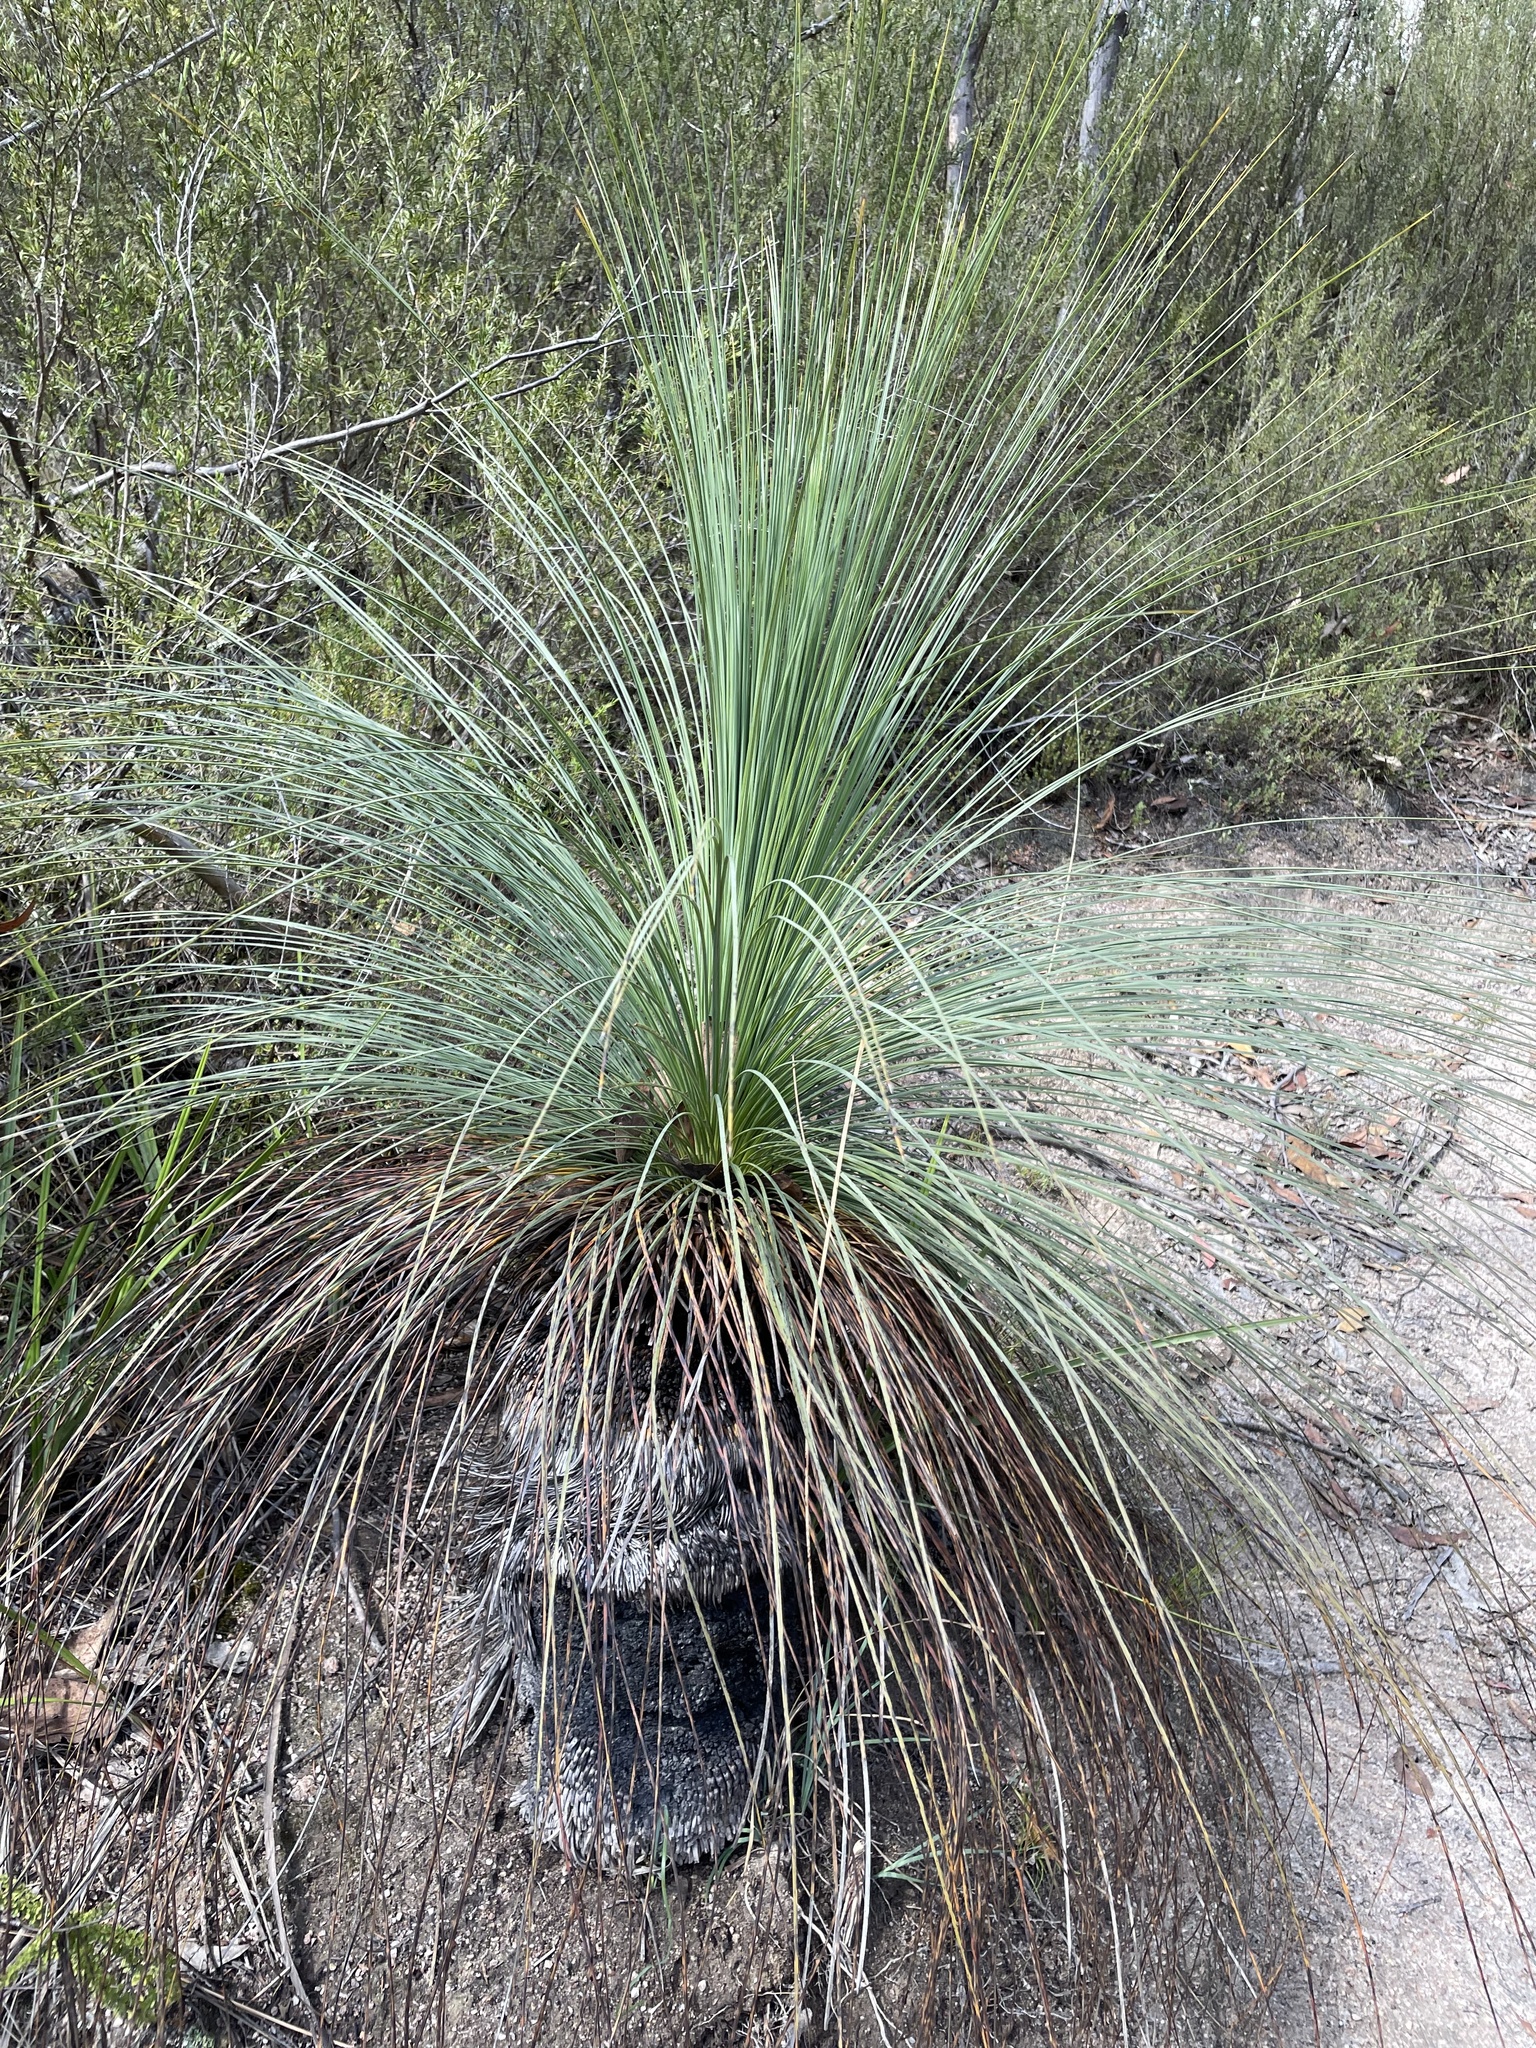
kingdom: Plantae
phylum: Tracheophyta
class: Liliopsida
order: Asparagales
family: Asphodelaceae
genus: Xanthorrhoea
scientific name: Xanthorrhoea glauca
